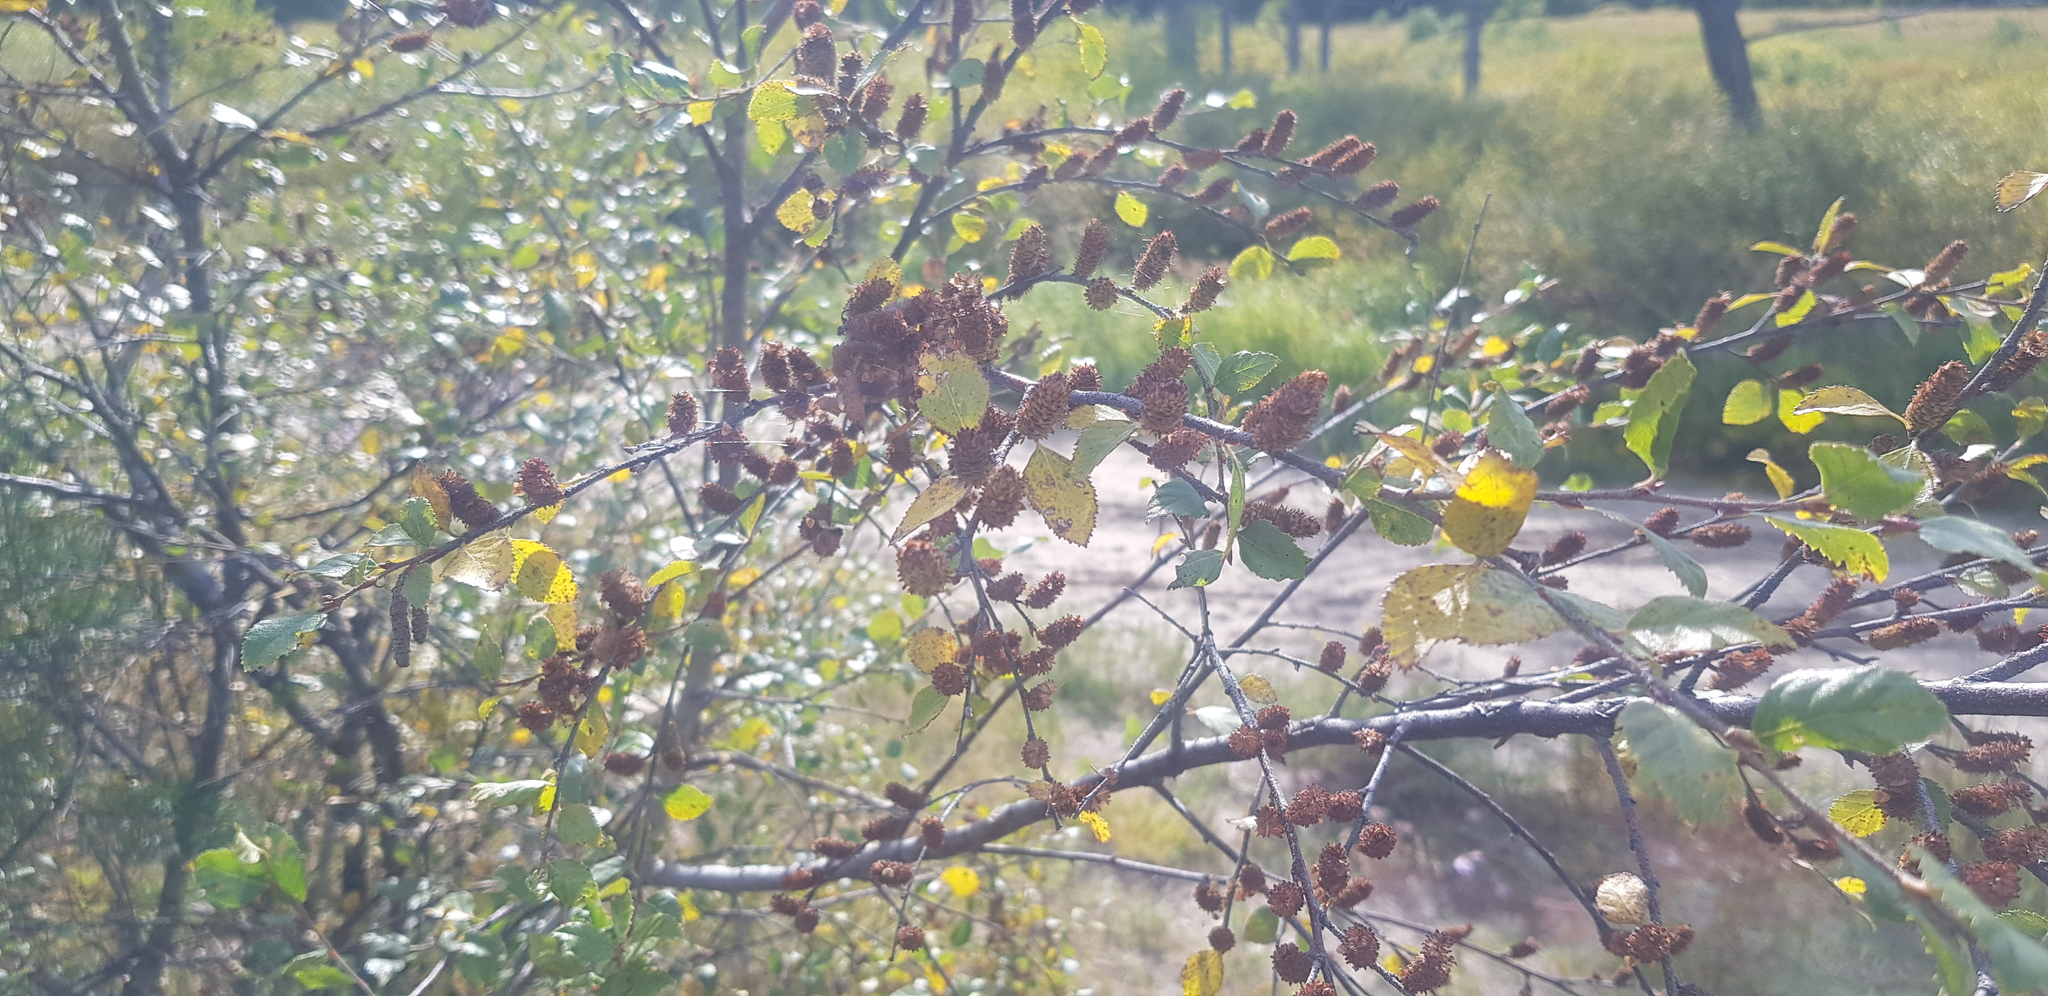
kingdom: Plantae
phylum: Tracheophyta
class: Magnoliopsida
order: Fagales
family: Betulaceae
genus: Betula
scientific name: Betula humilis
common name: Shrubby birch
